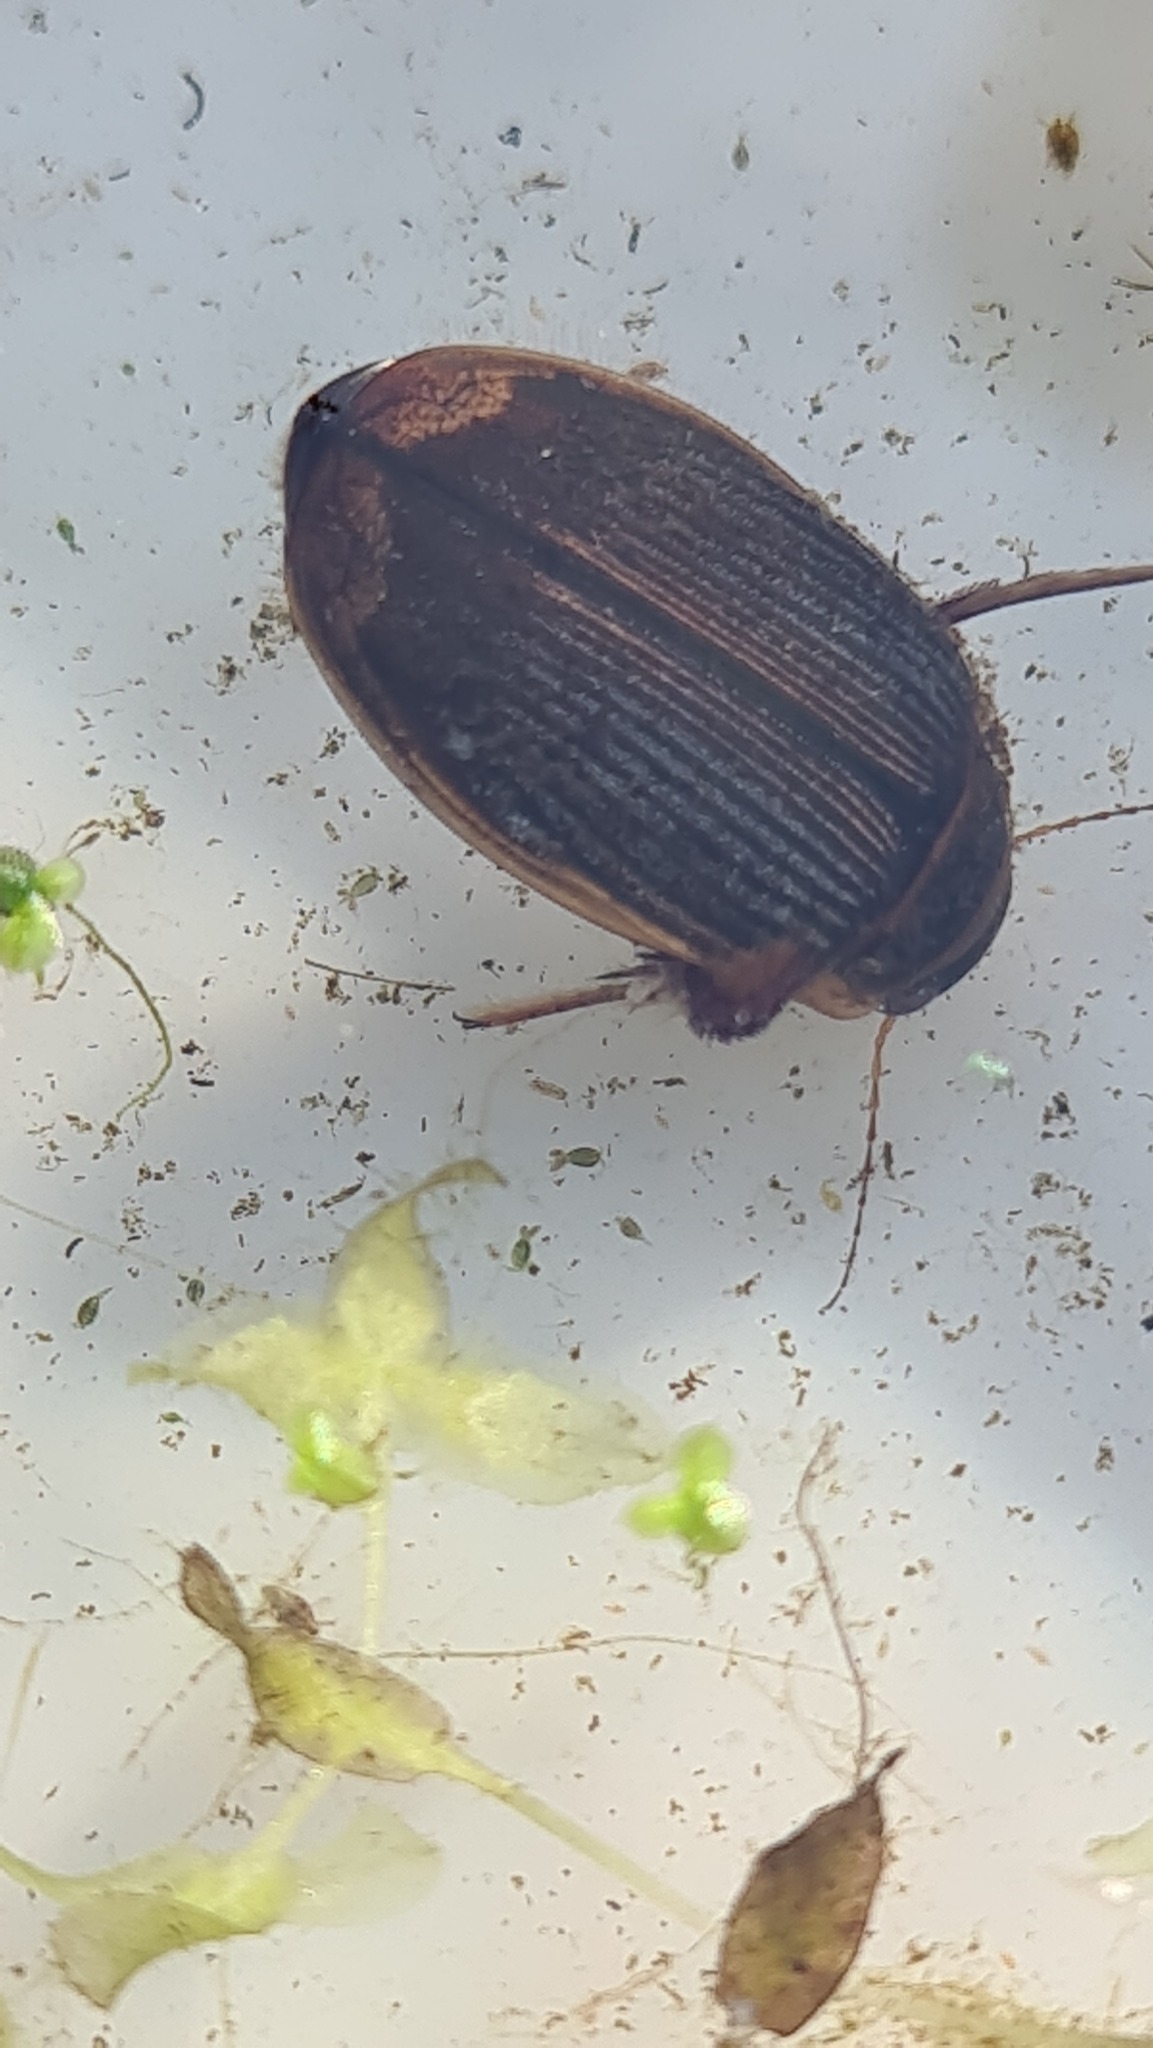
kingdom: Animalia
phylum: Arthropoda
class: Insecta
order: Coleoptera
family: Dytiscidae
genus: Dytiscus
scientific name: Dytiscus marginalis
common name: Great water beetle
